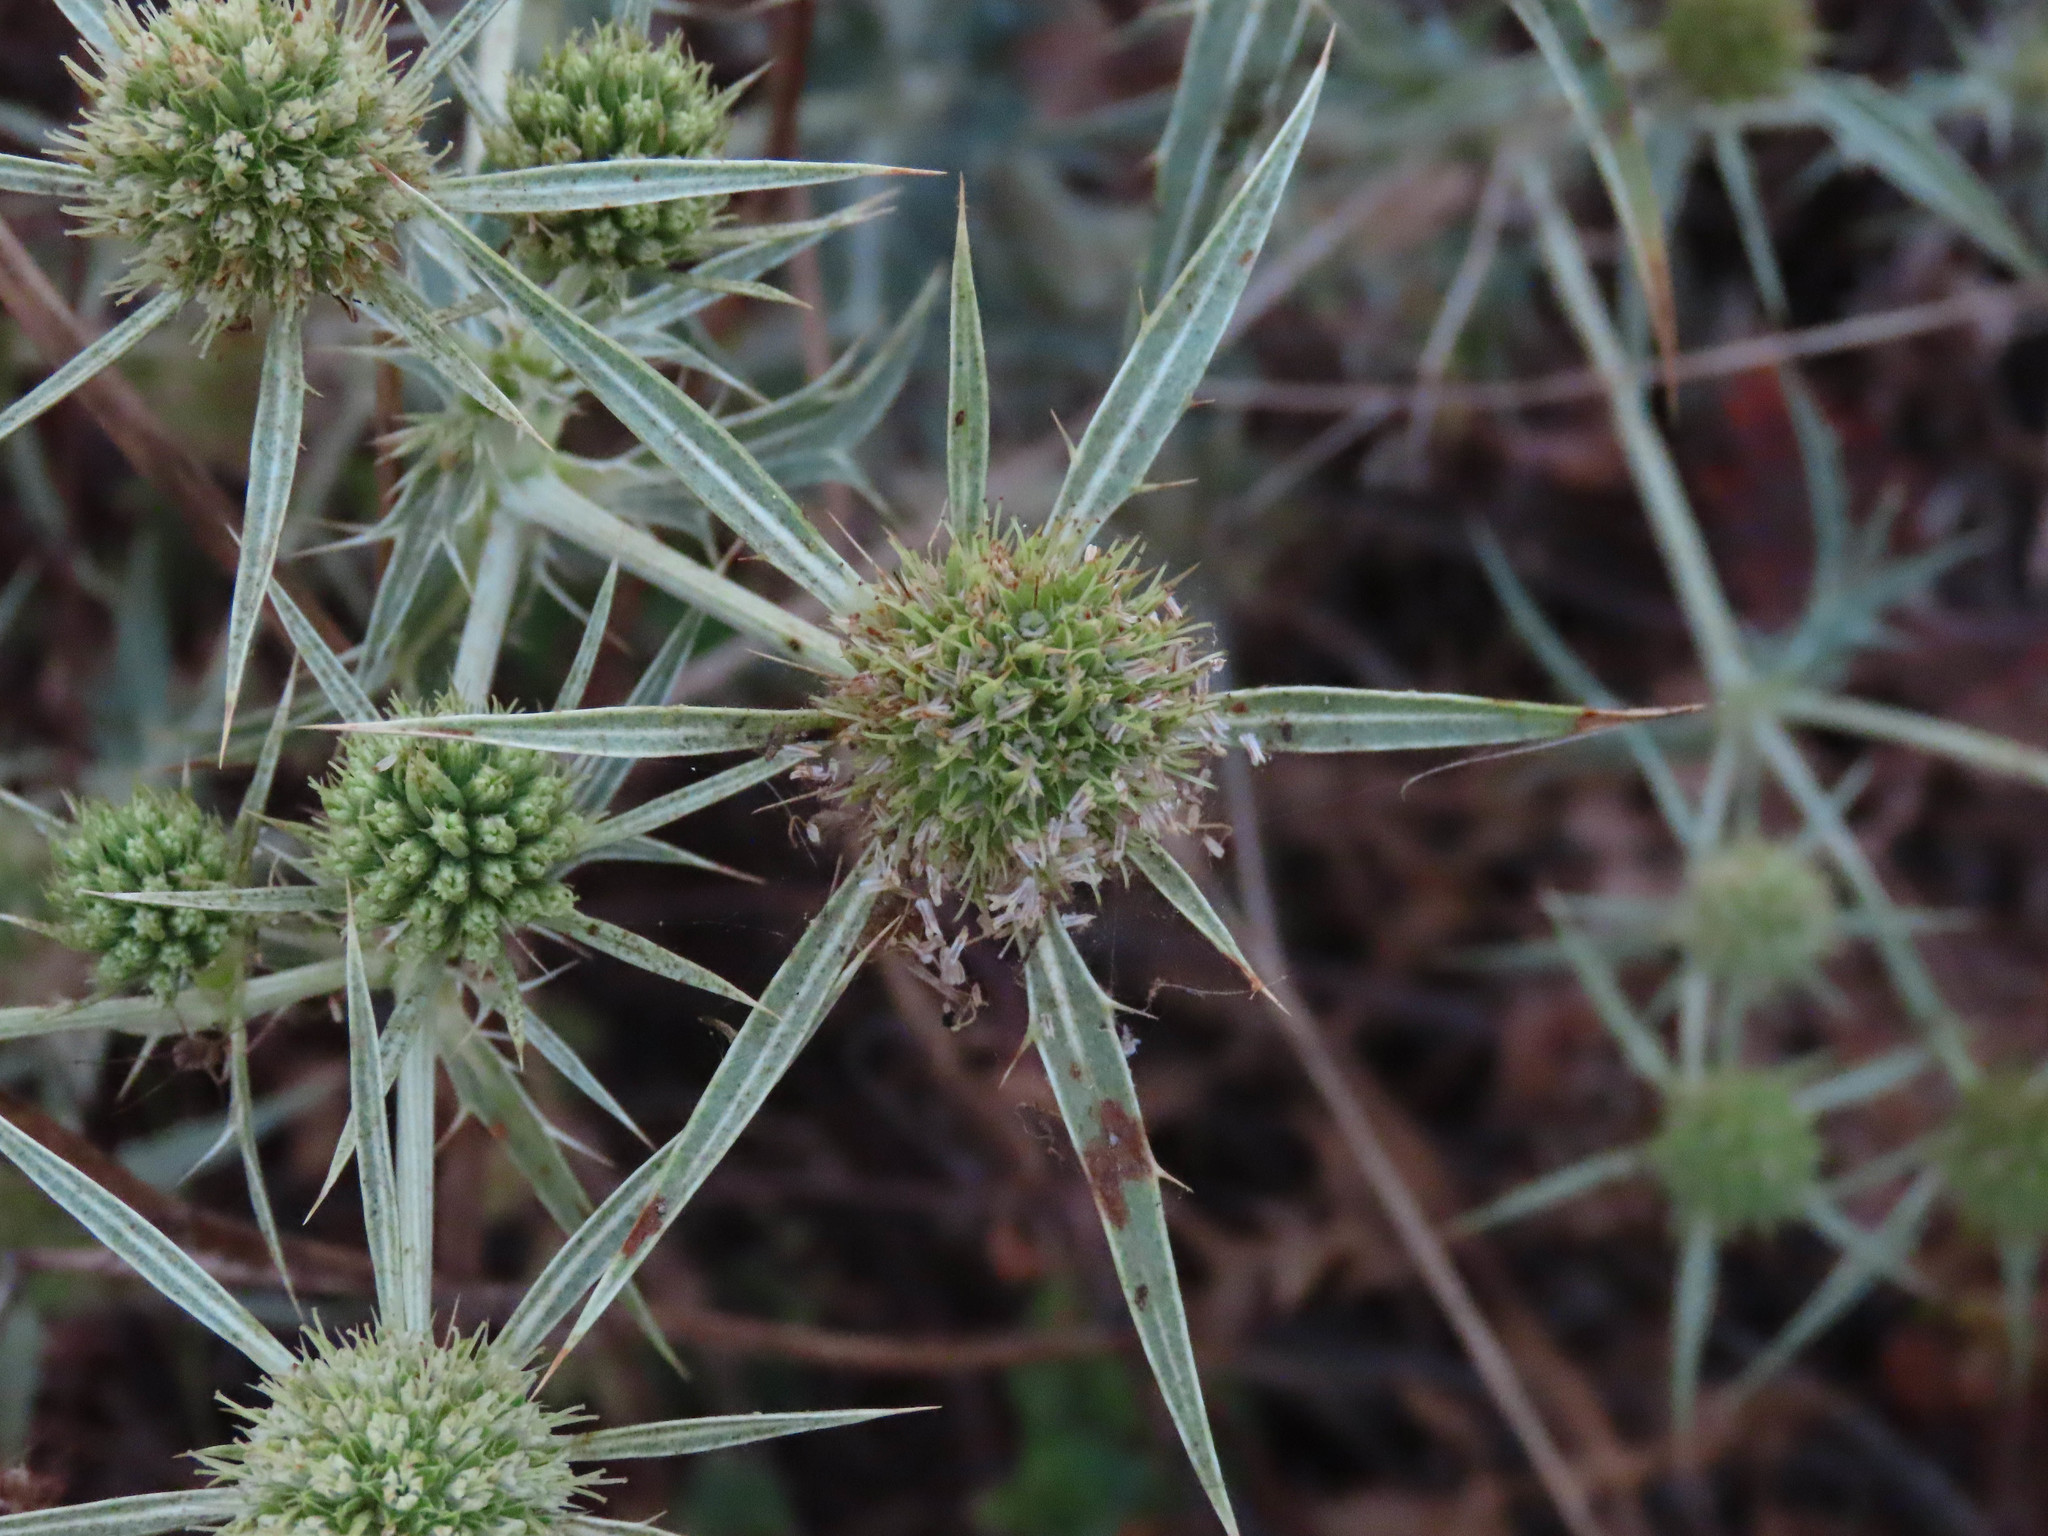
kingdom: Plantae
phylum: Tracheophyta
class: Magnoliopsida
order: Apiales
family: Apiaceae
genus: Eryngium
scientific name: Eryngium campestre
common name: Field eryngo
